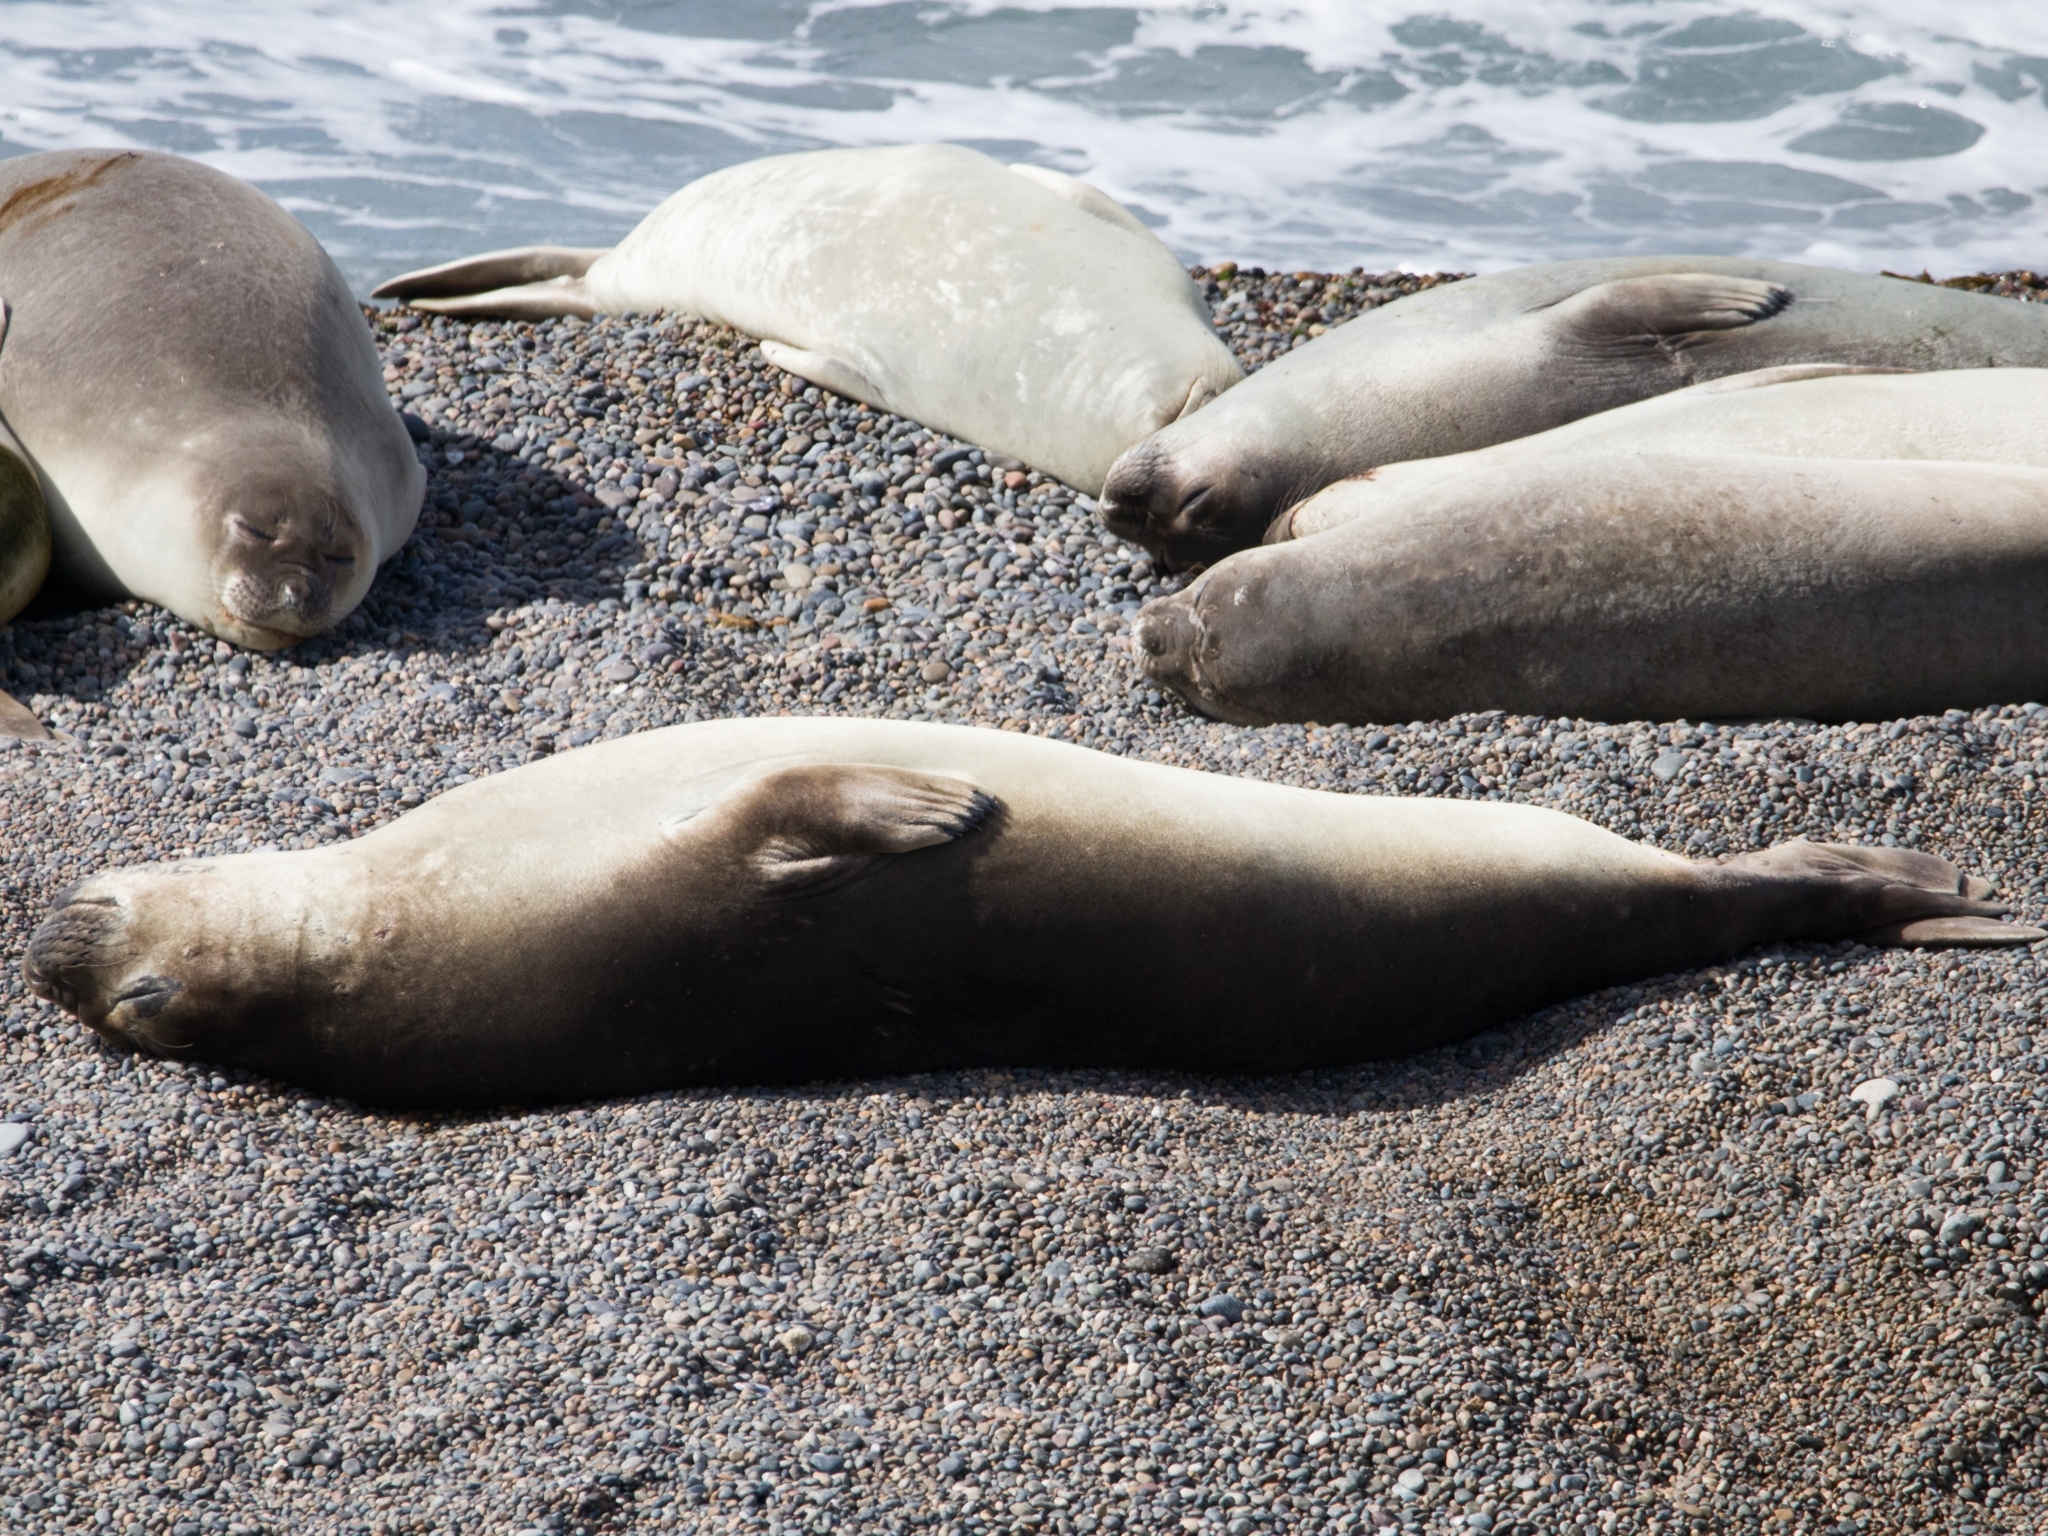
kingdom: Animalia
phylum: Chordata
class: Mammalia
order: Carnivora
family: Phocidae
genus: Mirounga
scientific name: Mirounga leonina
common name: Southern elephant seal
